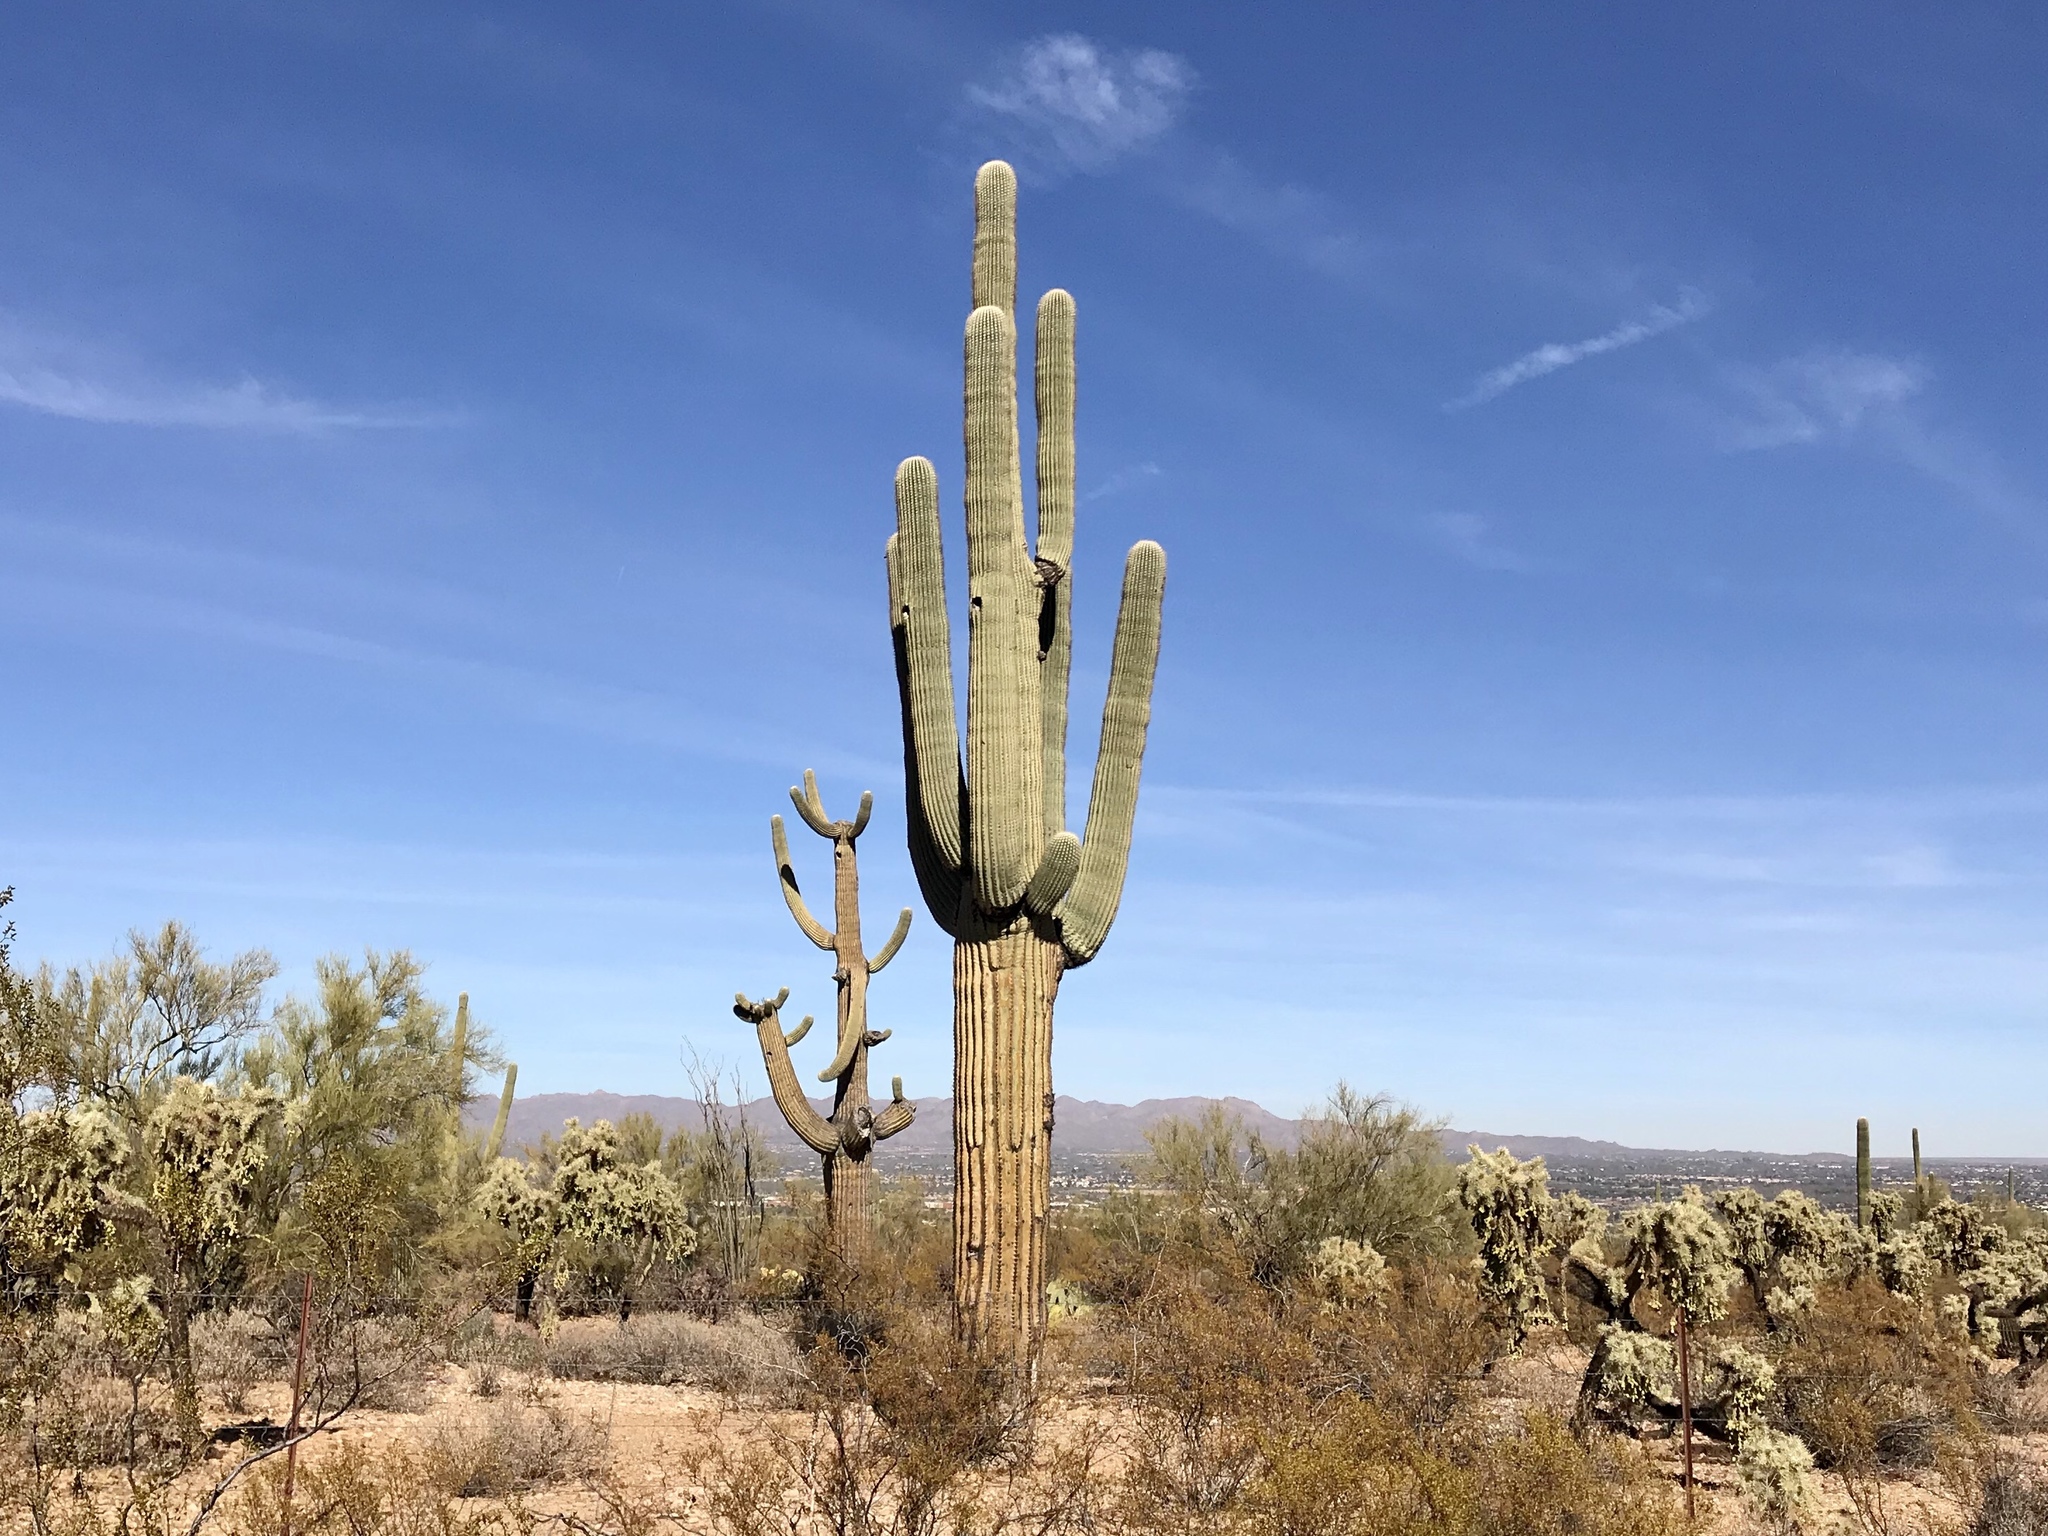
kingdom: Plantae
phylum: Tracheophyta
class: Magnoliopsida
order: Caryophyllales
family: Cactaceae
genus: Carnegiea
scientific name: Carnegiea gigantea
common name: Saguaro
